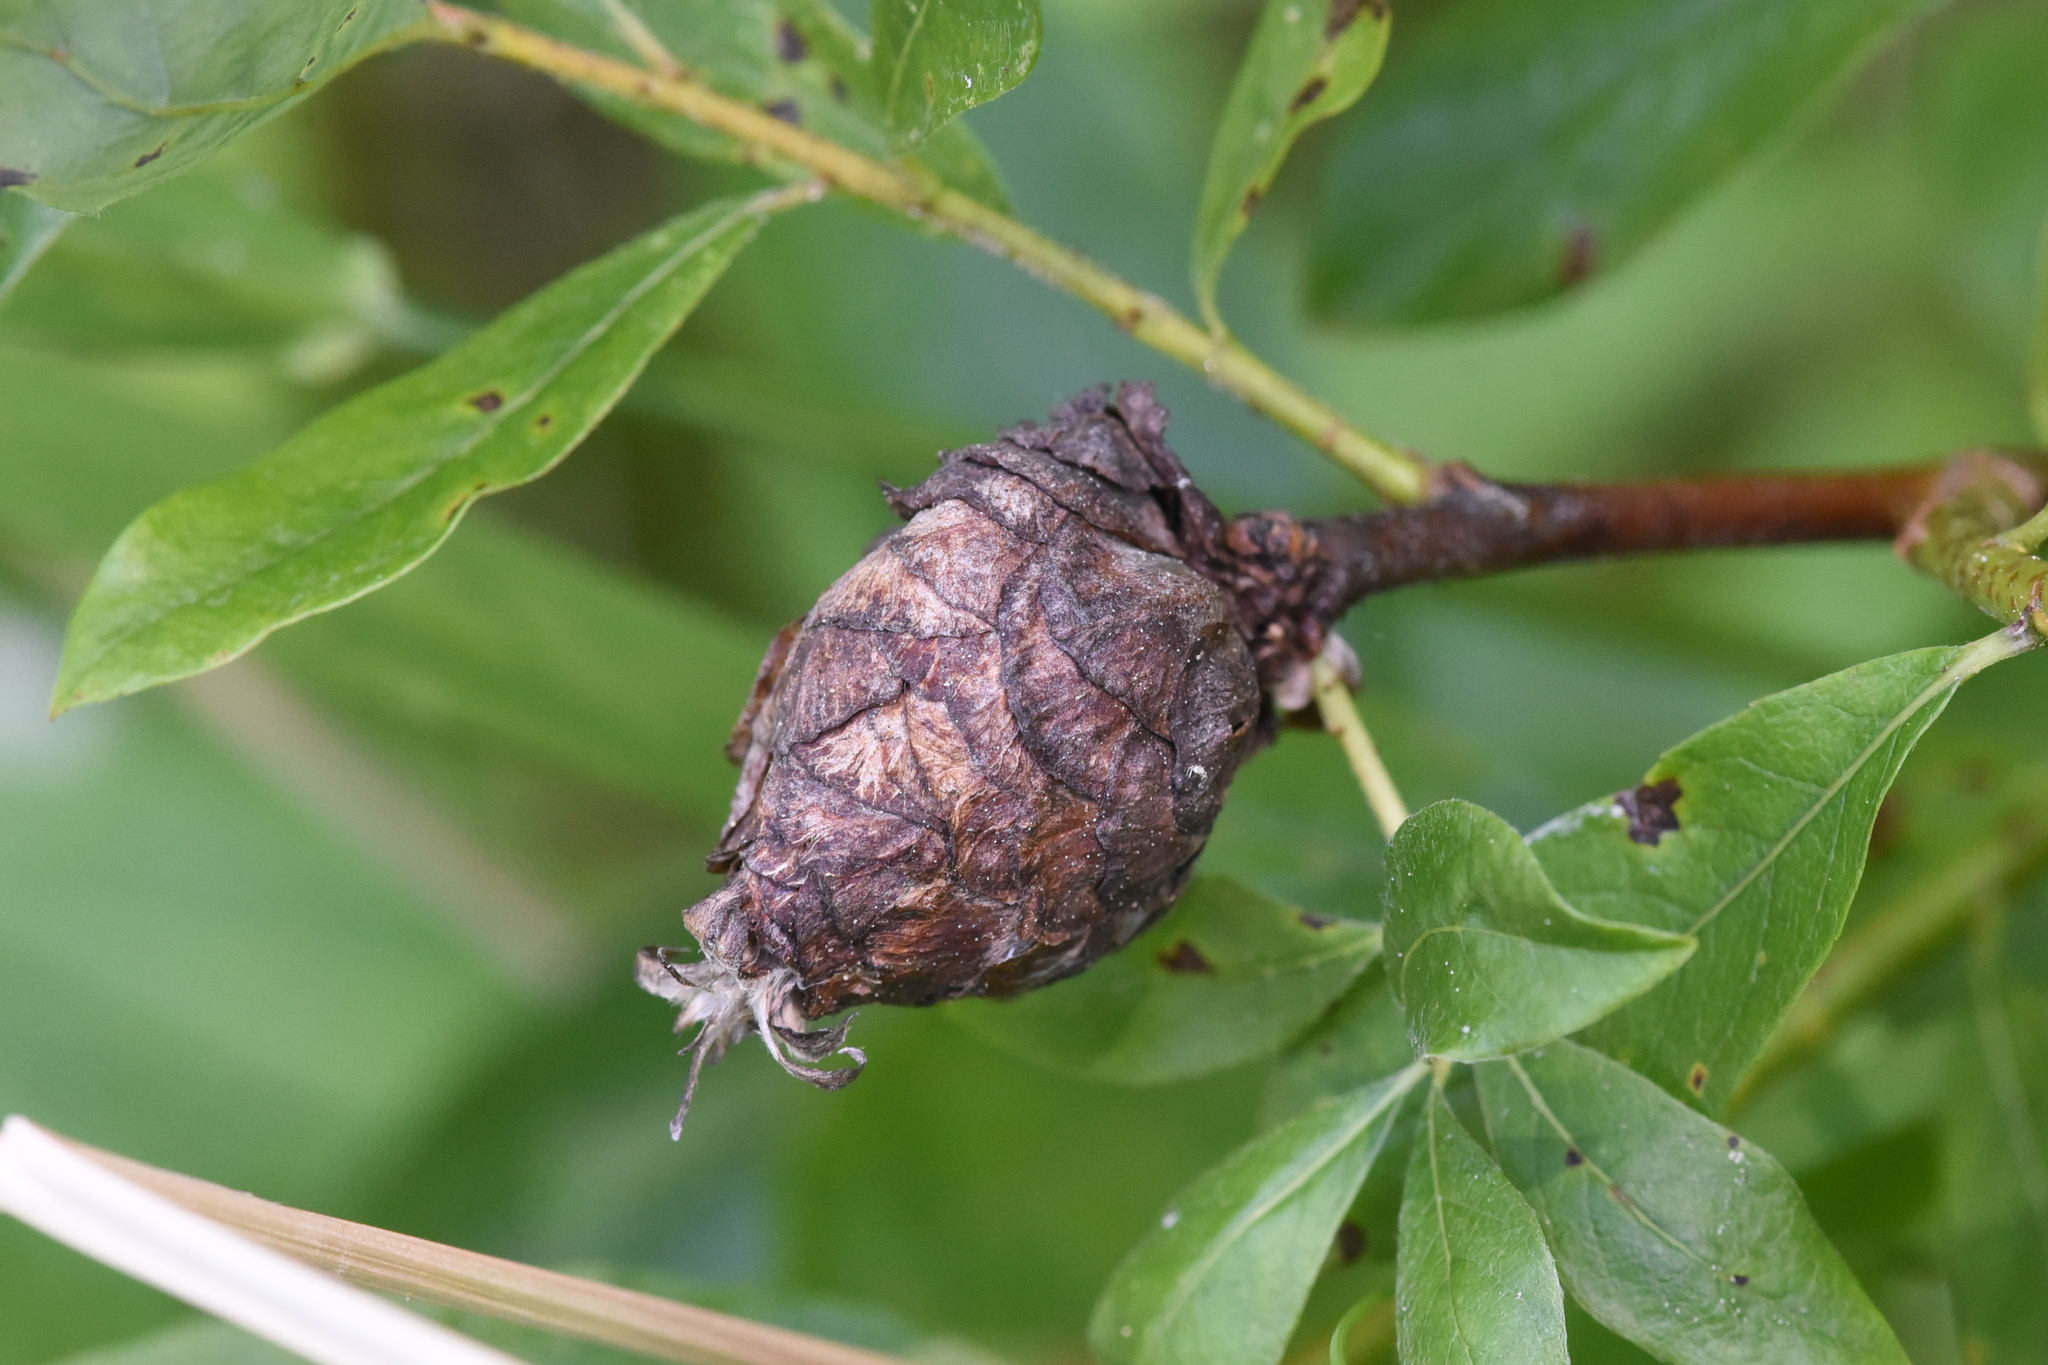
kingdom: Animalia
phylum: Arthropoda
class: Insecta
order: Diptera
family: Cecidomyiidae
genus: Rabdophaga
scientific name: Rabdophaga strobiloides
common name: Willow pinecone gall midge
